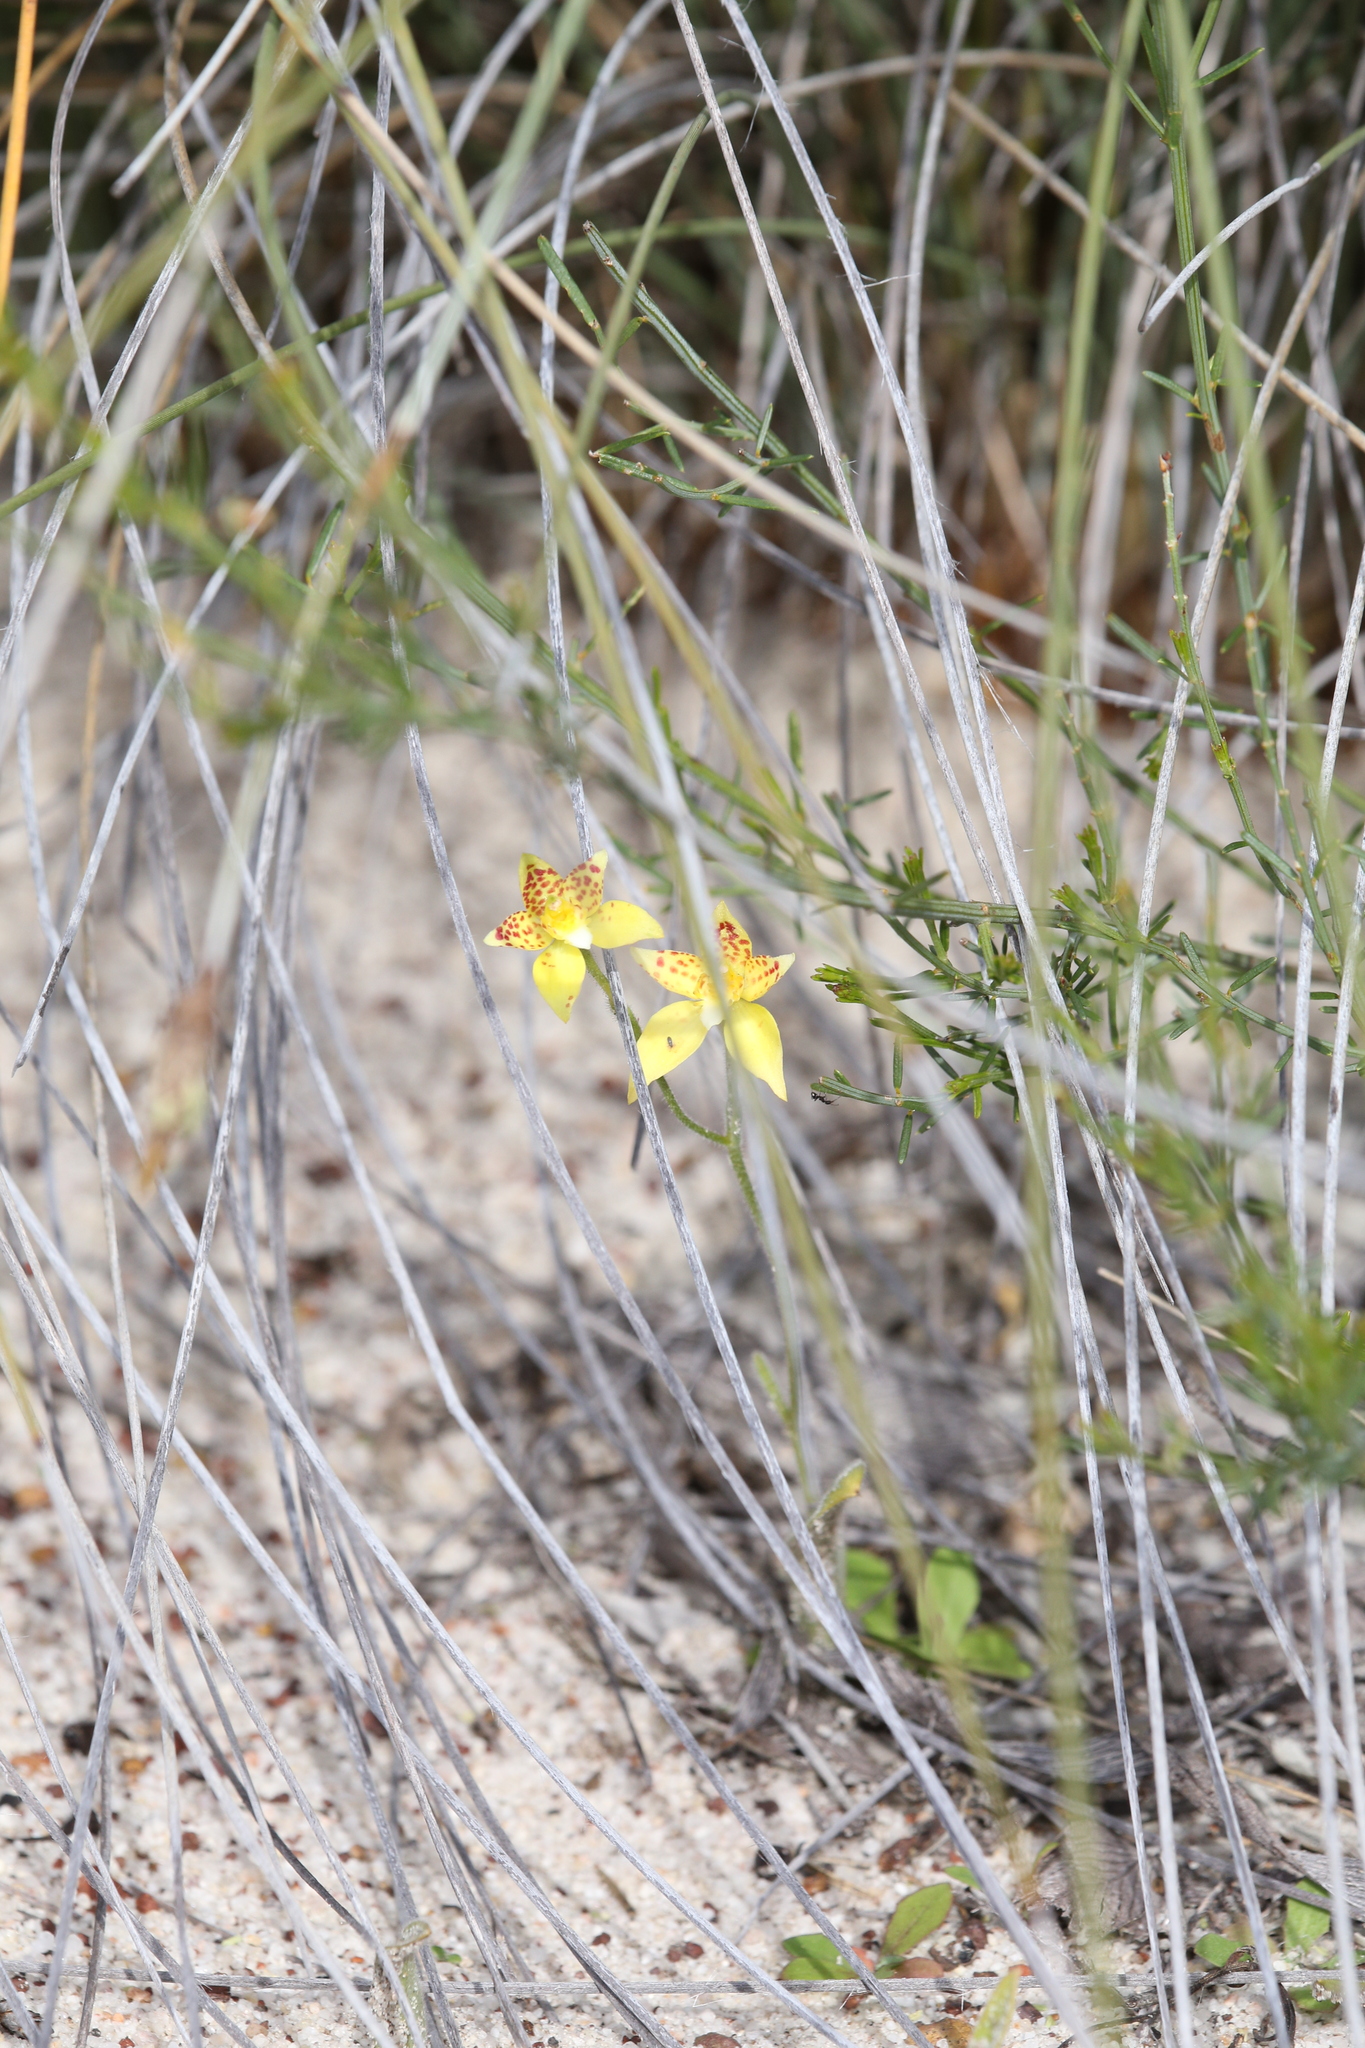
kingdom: Plantae
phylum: Tracheophyta
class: Liliopsida
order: Asparagales
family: Orchidaceae
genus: Caladenia
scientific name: Caladenia flava
